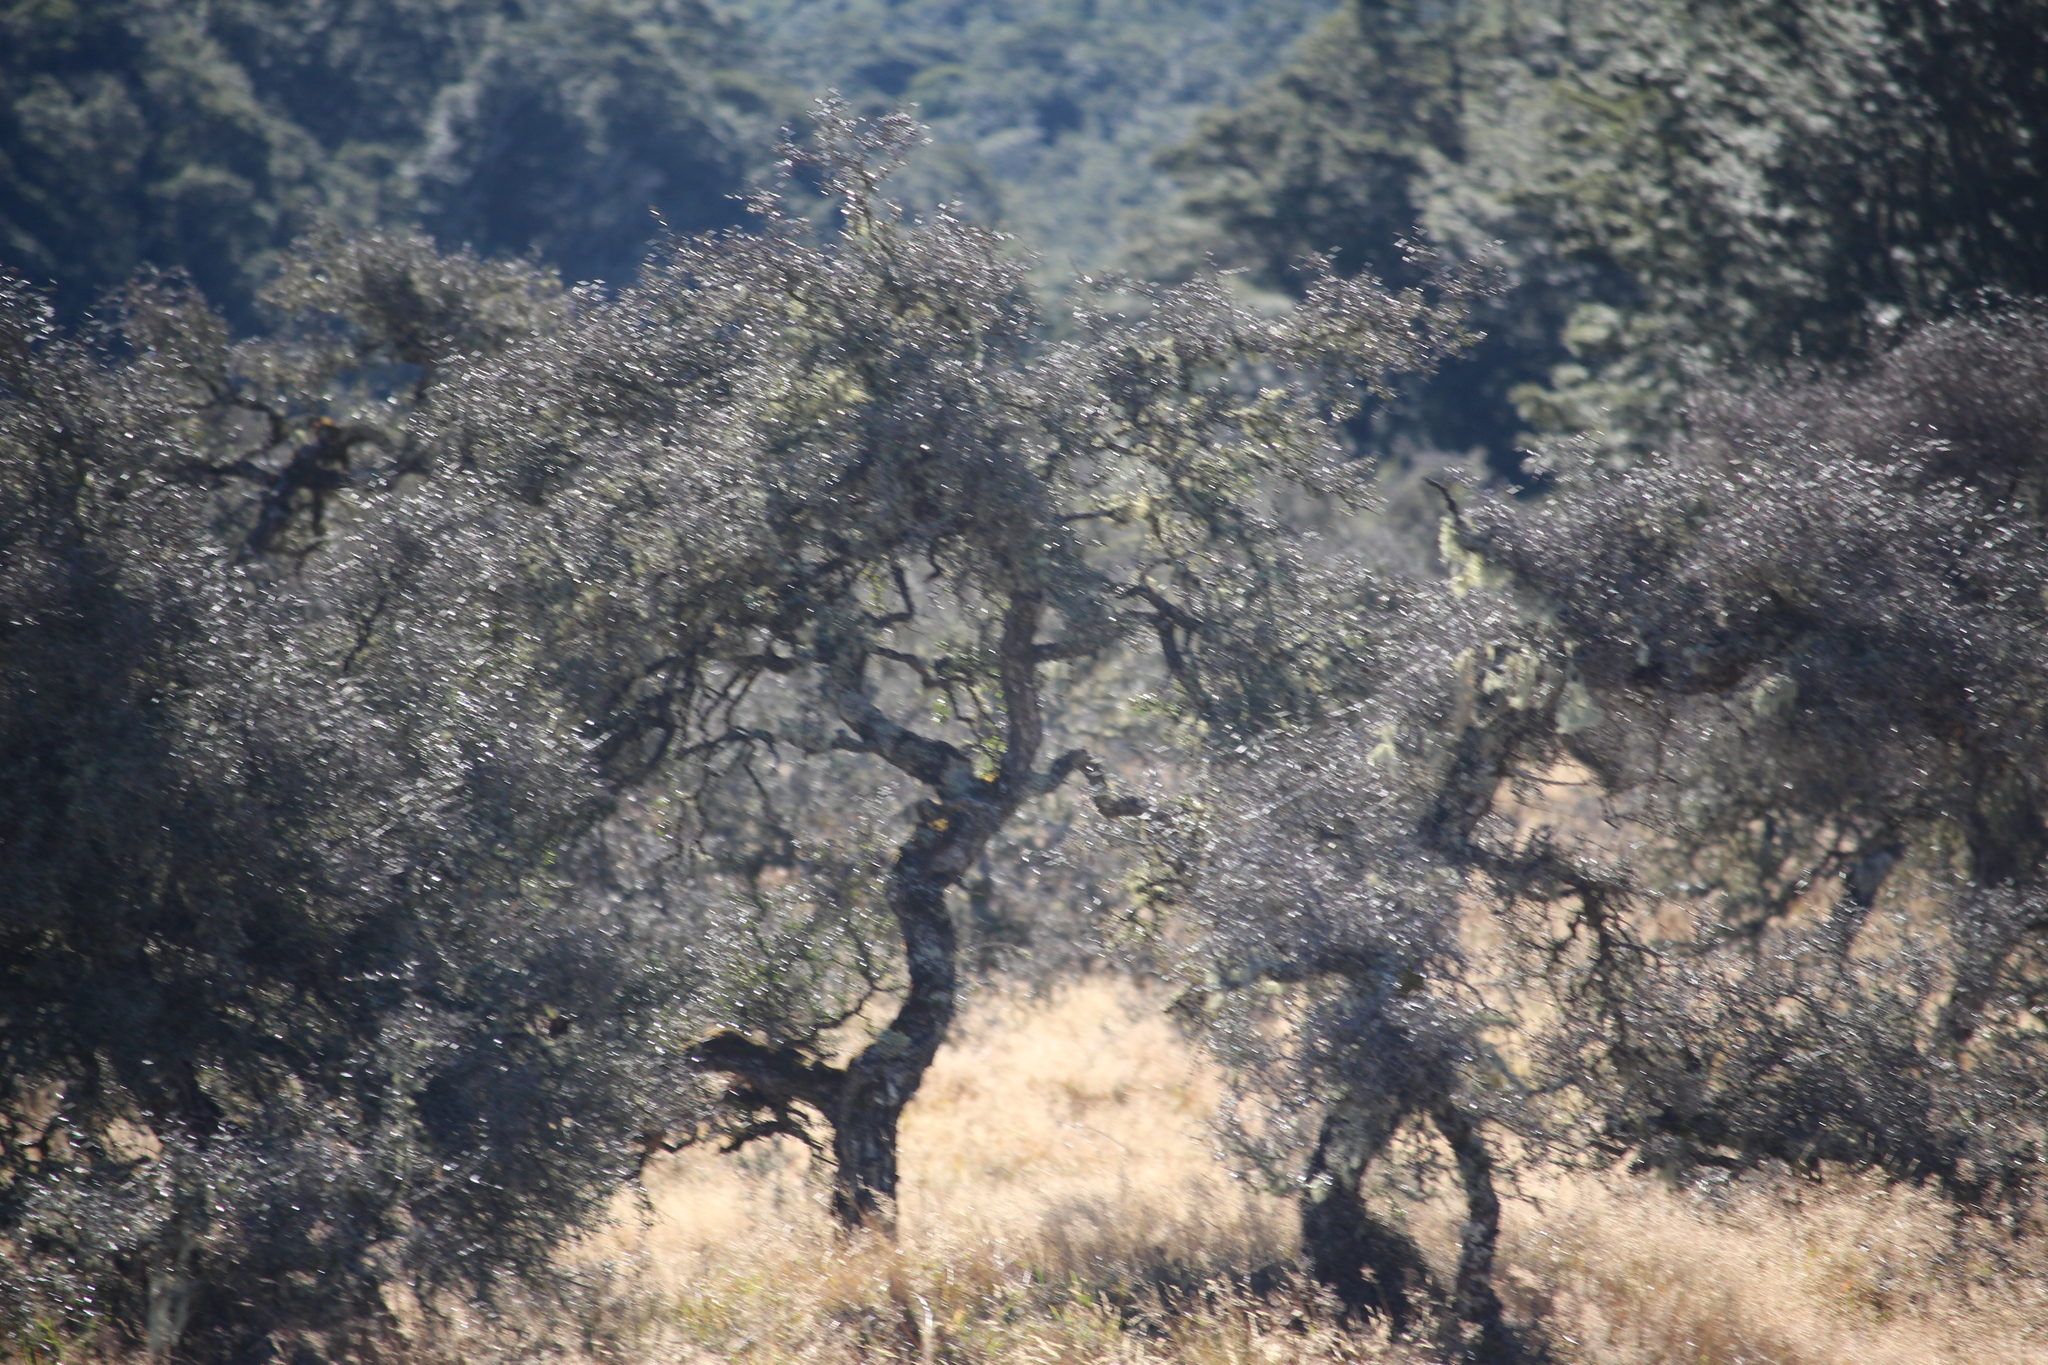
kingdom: Plantae
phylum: Tracheophyta
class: Magnoliopsida
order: Rosales
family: Rhamnaceae
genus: Discaria
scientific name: Discaria toumatou
